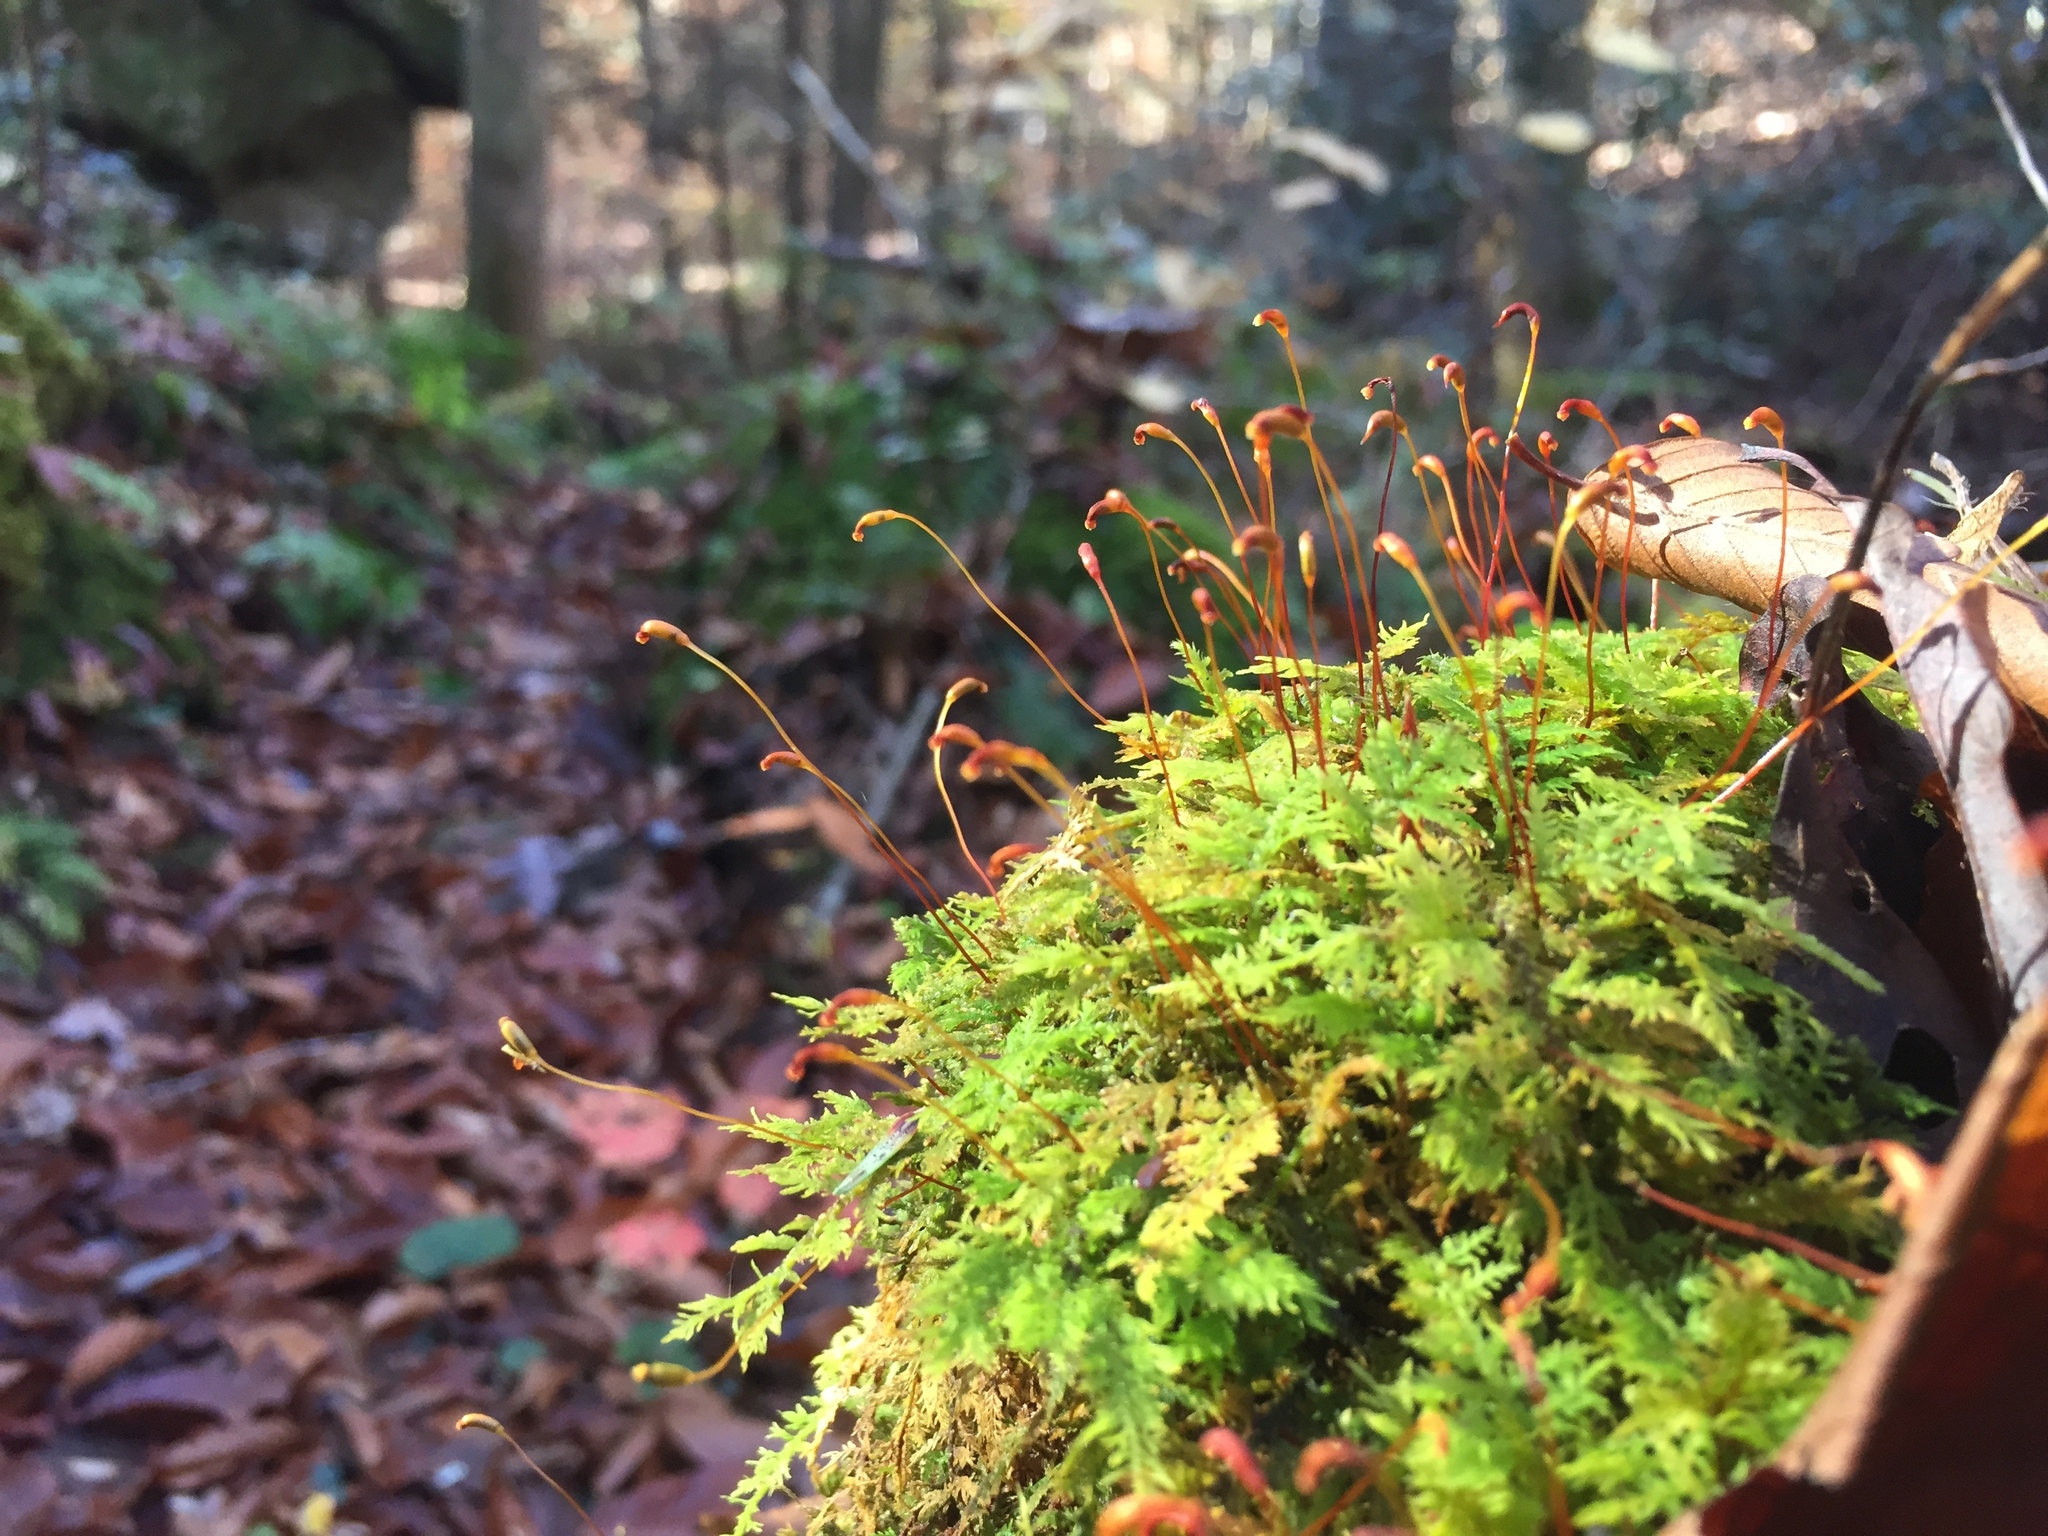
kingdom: Plantae
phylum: Bryophyta
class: Bryopsida
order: Hypnales
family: Thuidiaceae
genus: Thuidium
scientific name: Thuidium delicatulum
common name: Delicate fern moss
